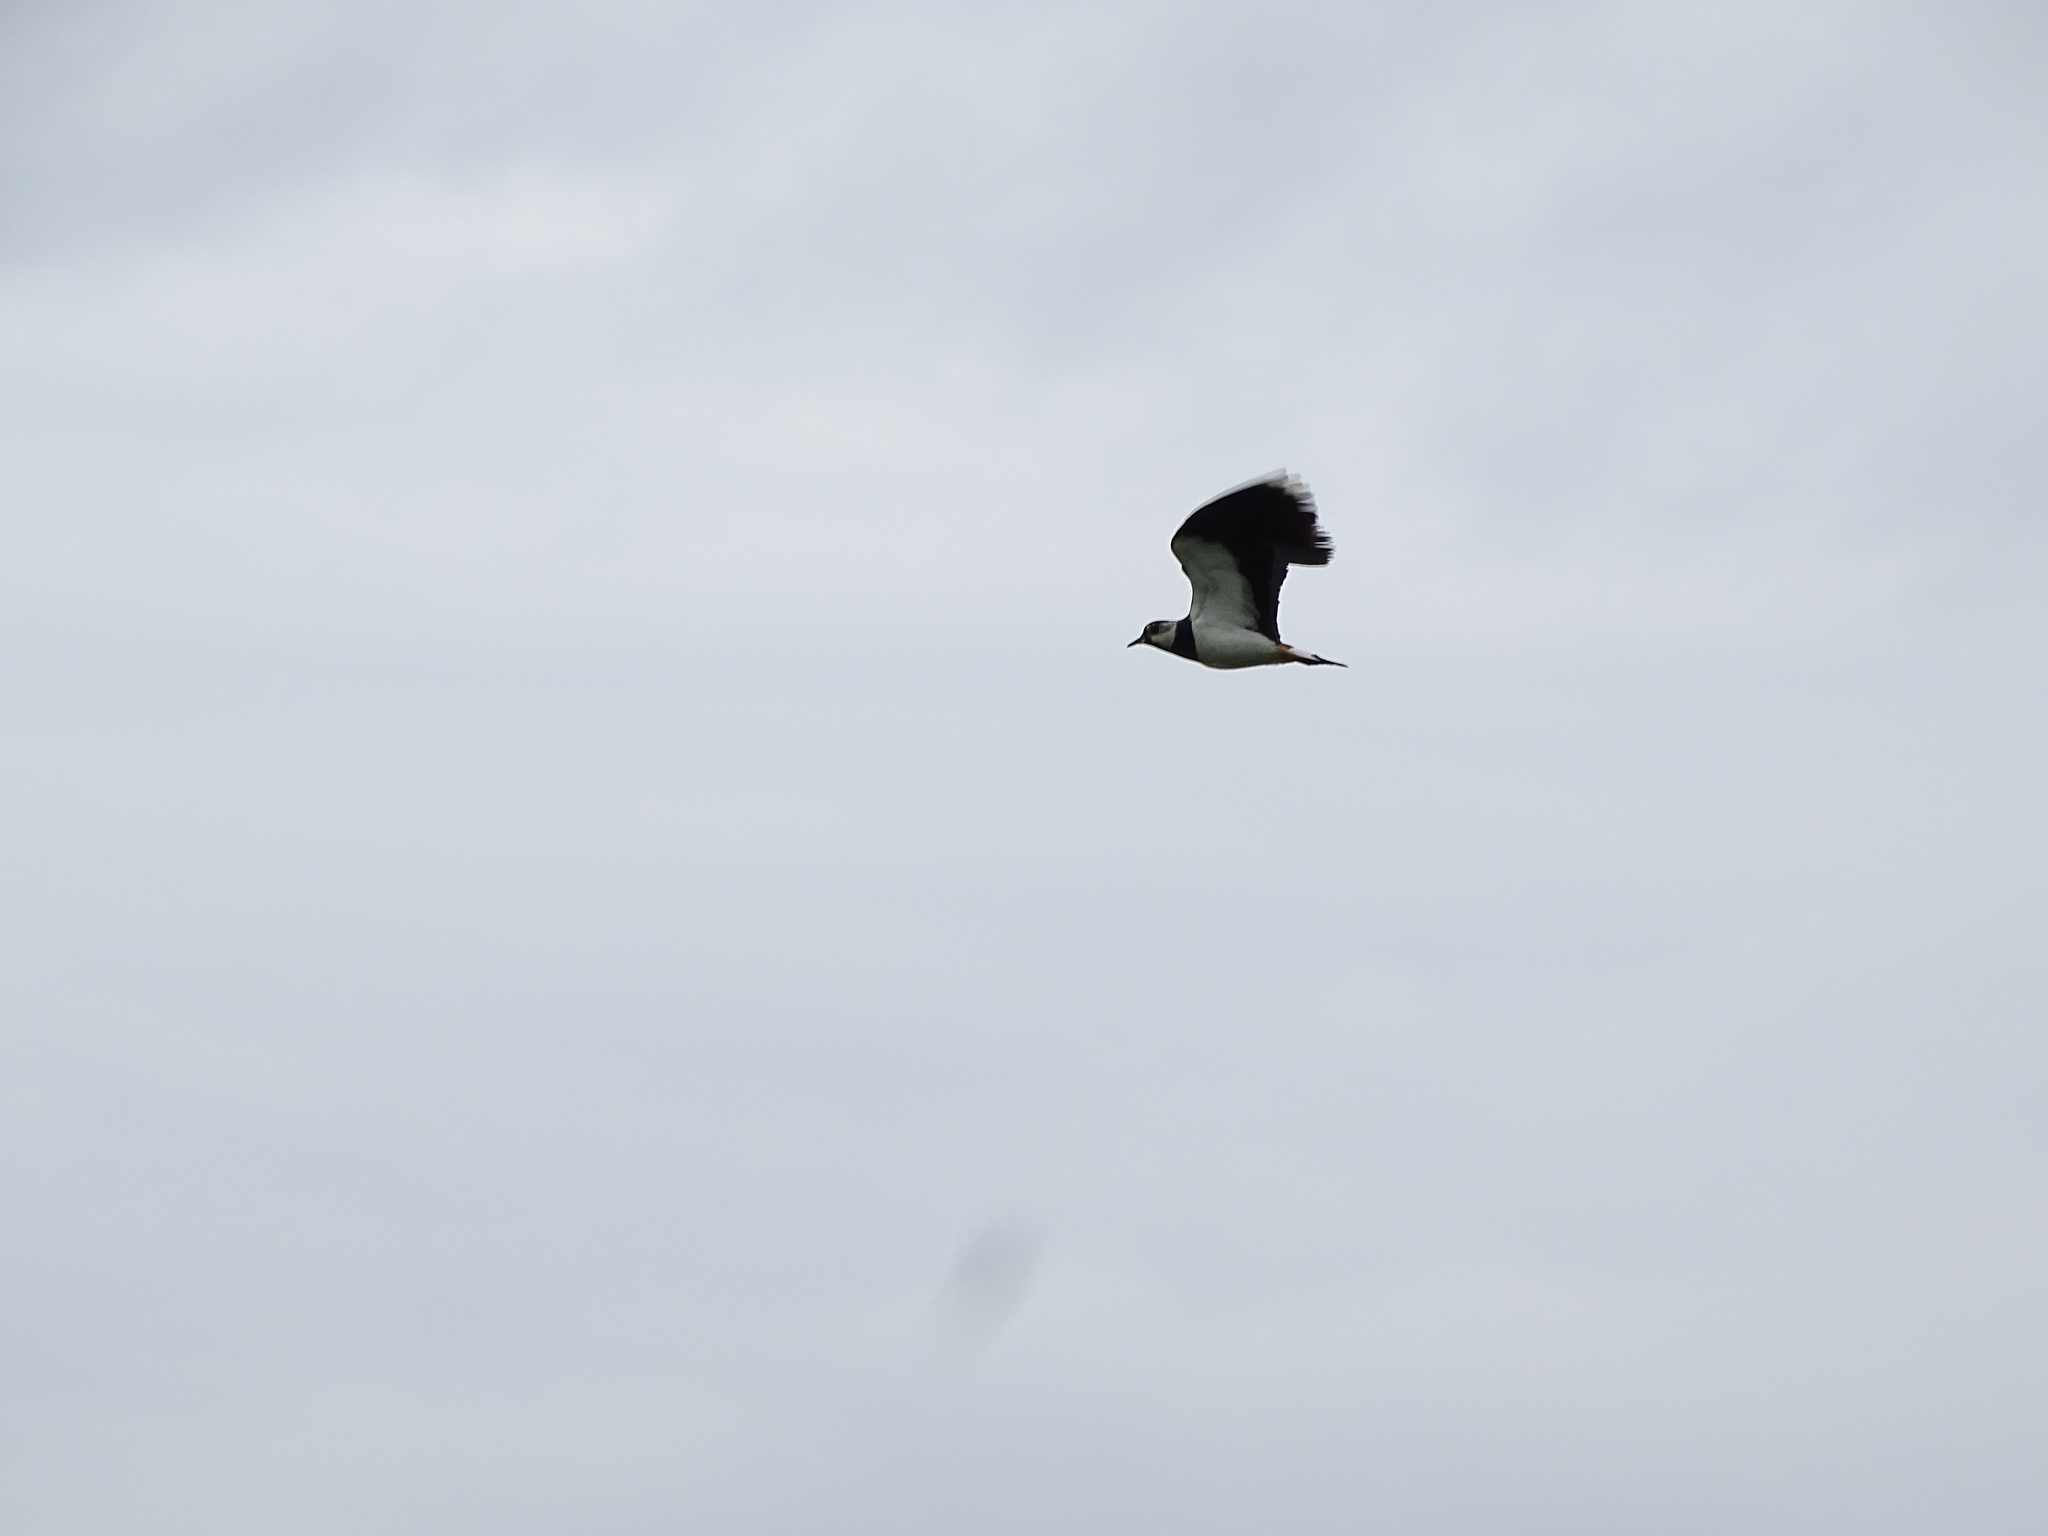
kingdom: Animalia
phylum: Chordata
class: Aves
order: Charadriiformes
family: Charadriidae
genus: Vanellus
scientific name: Vanellus vanellus
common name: Northern lapwing
